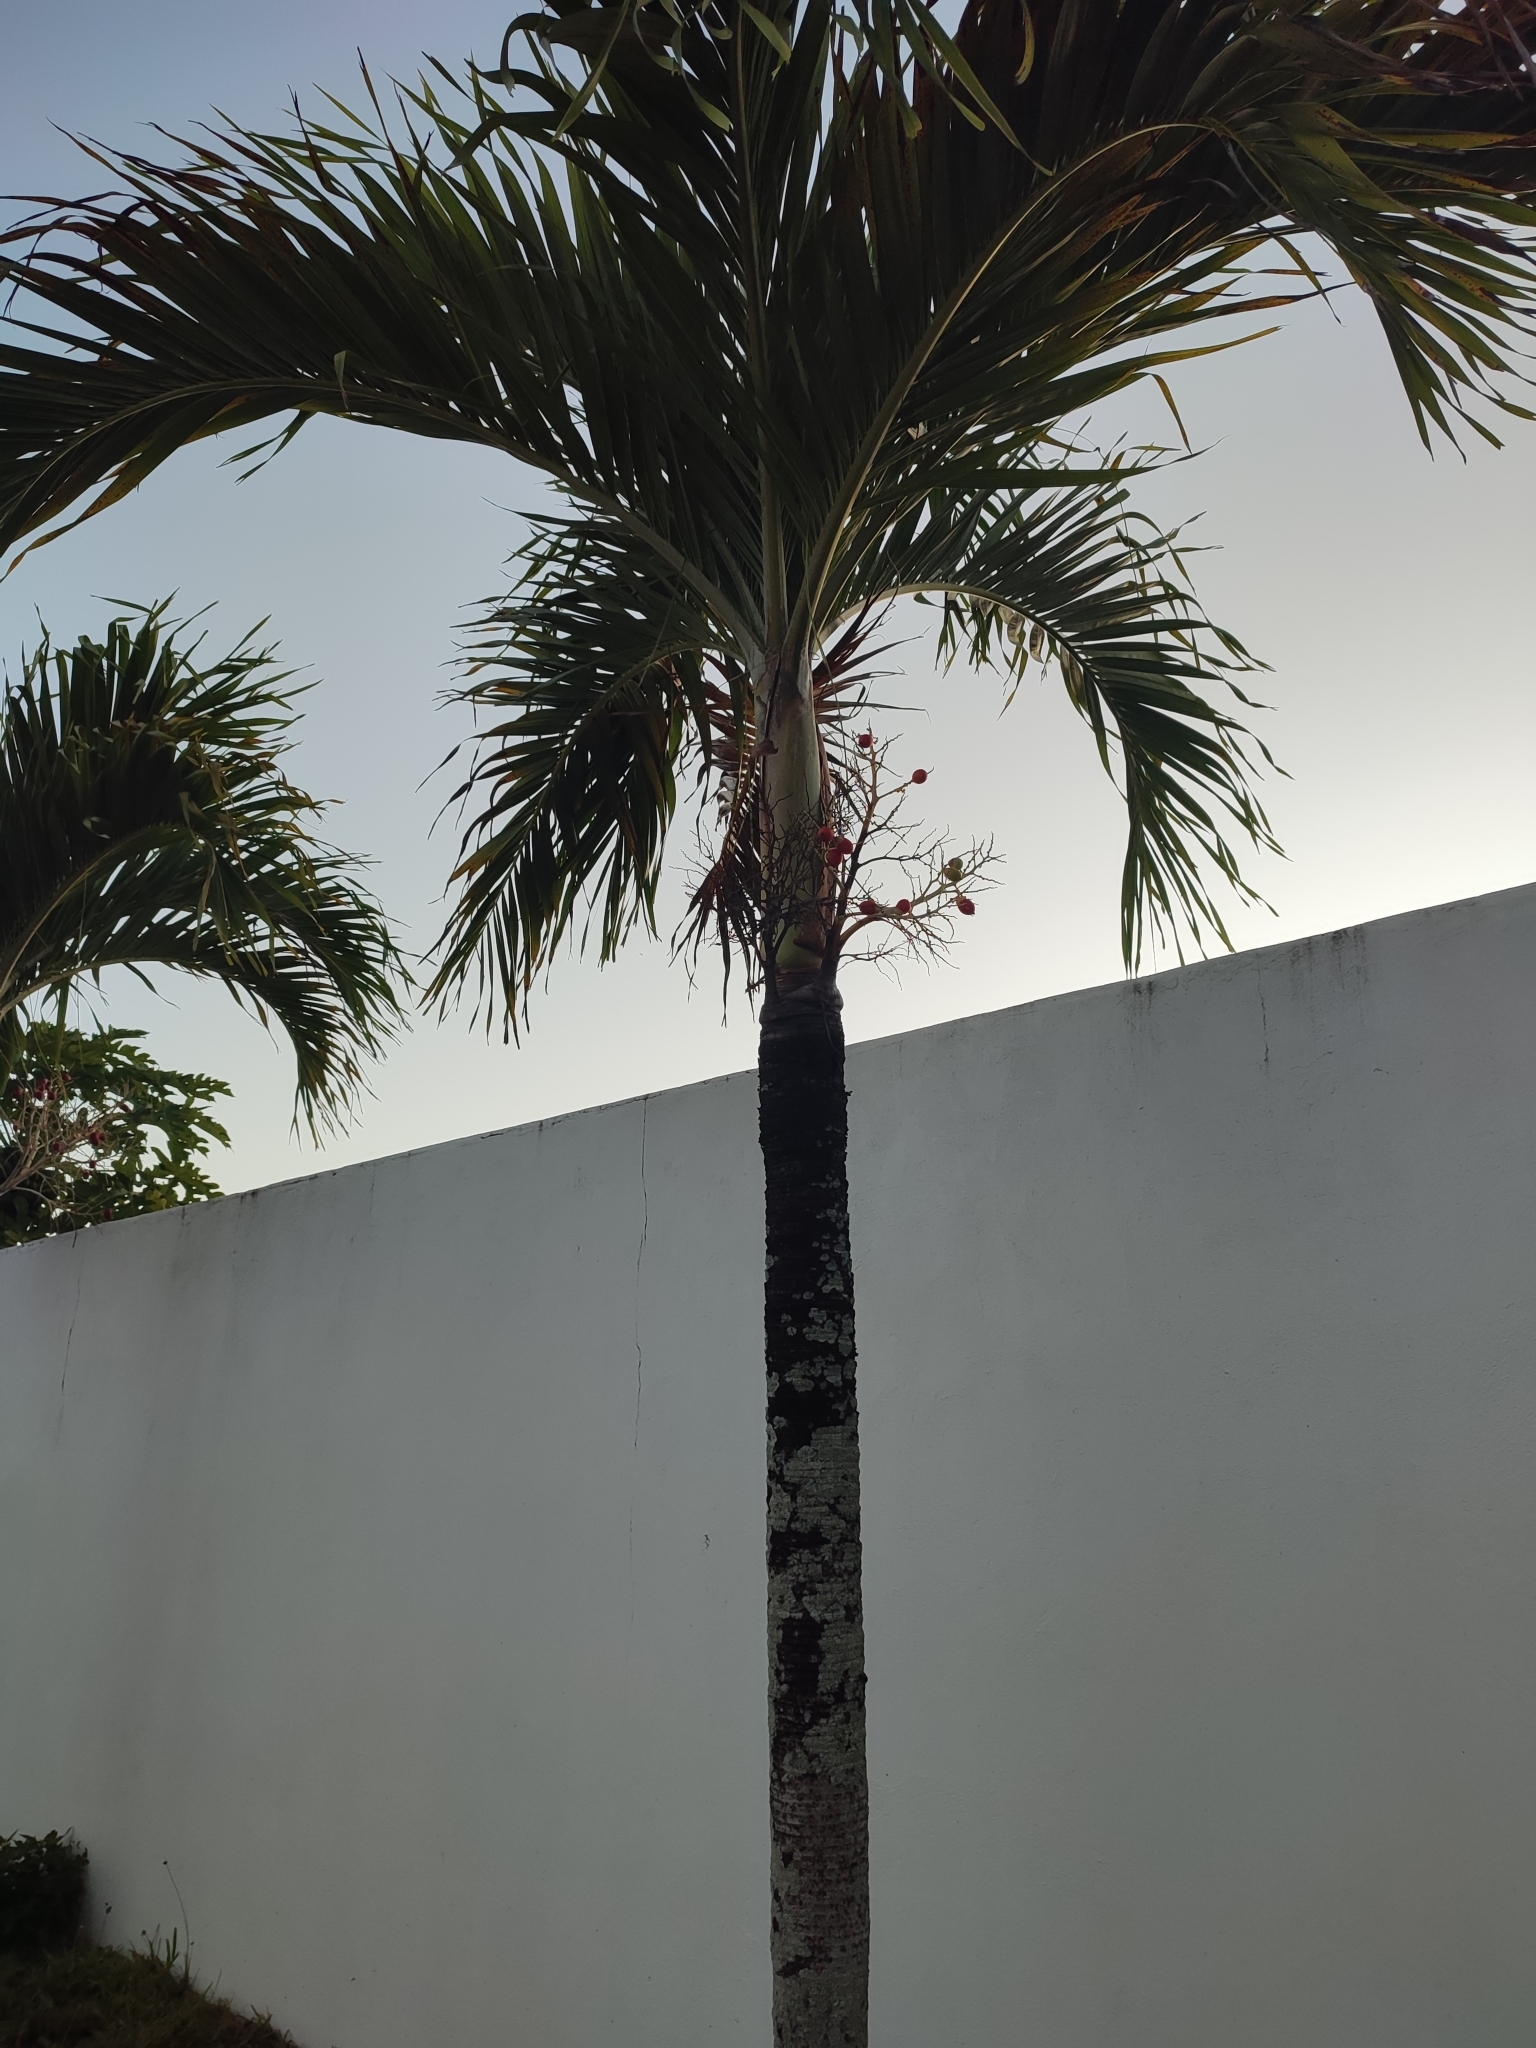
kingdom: Plantae
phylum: Tracheophyta
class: Liliopsida
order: Arecales
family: Arecaceae
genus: Adonidia
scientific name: Adonidia merrillii
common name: Manila palm
